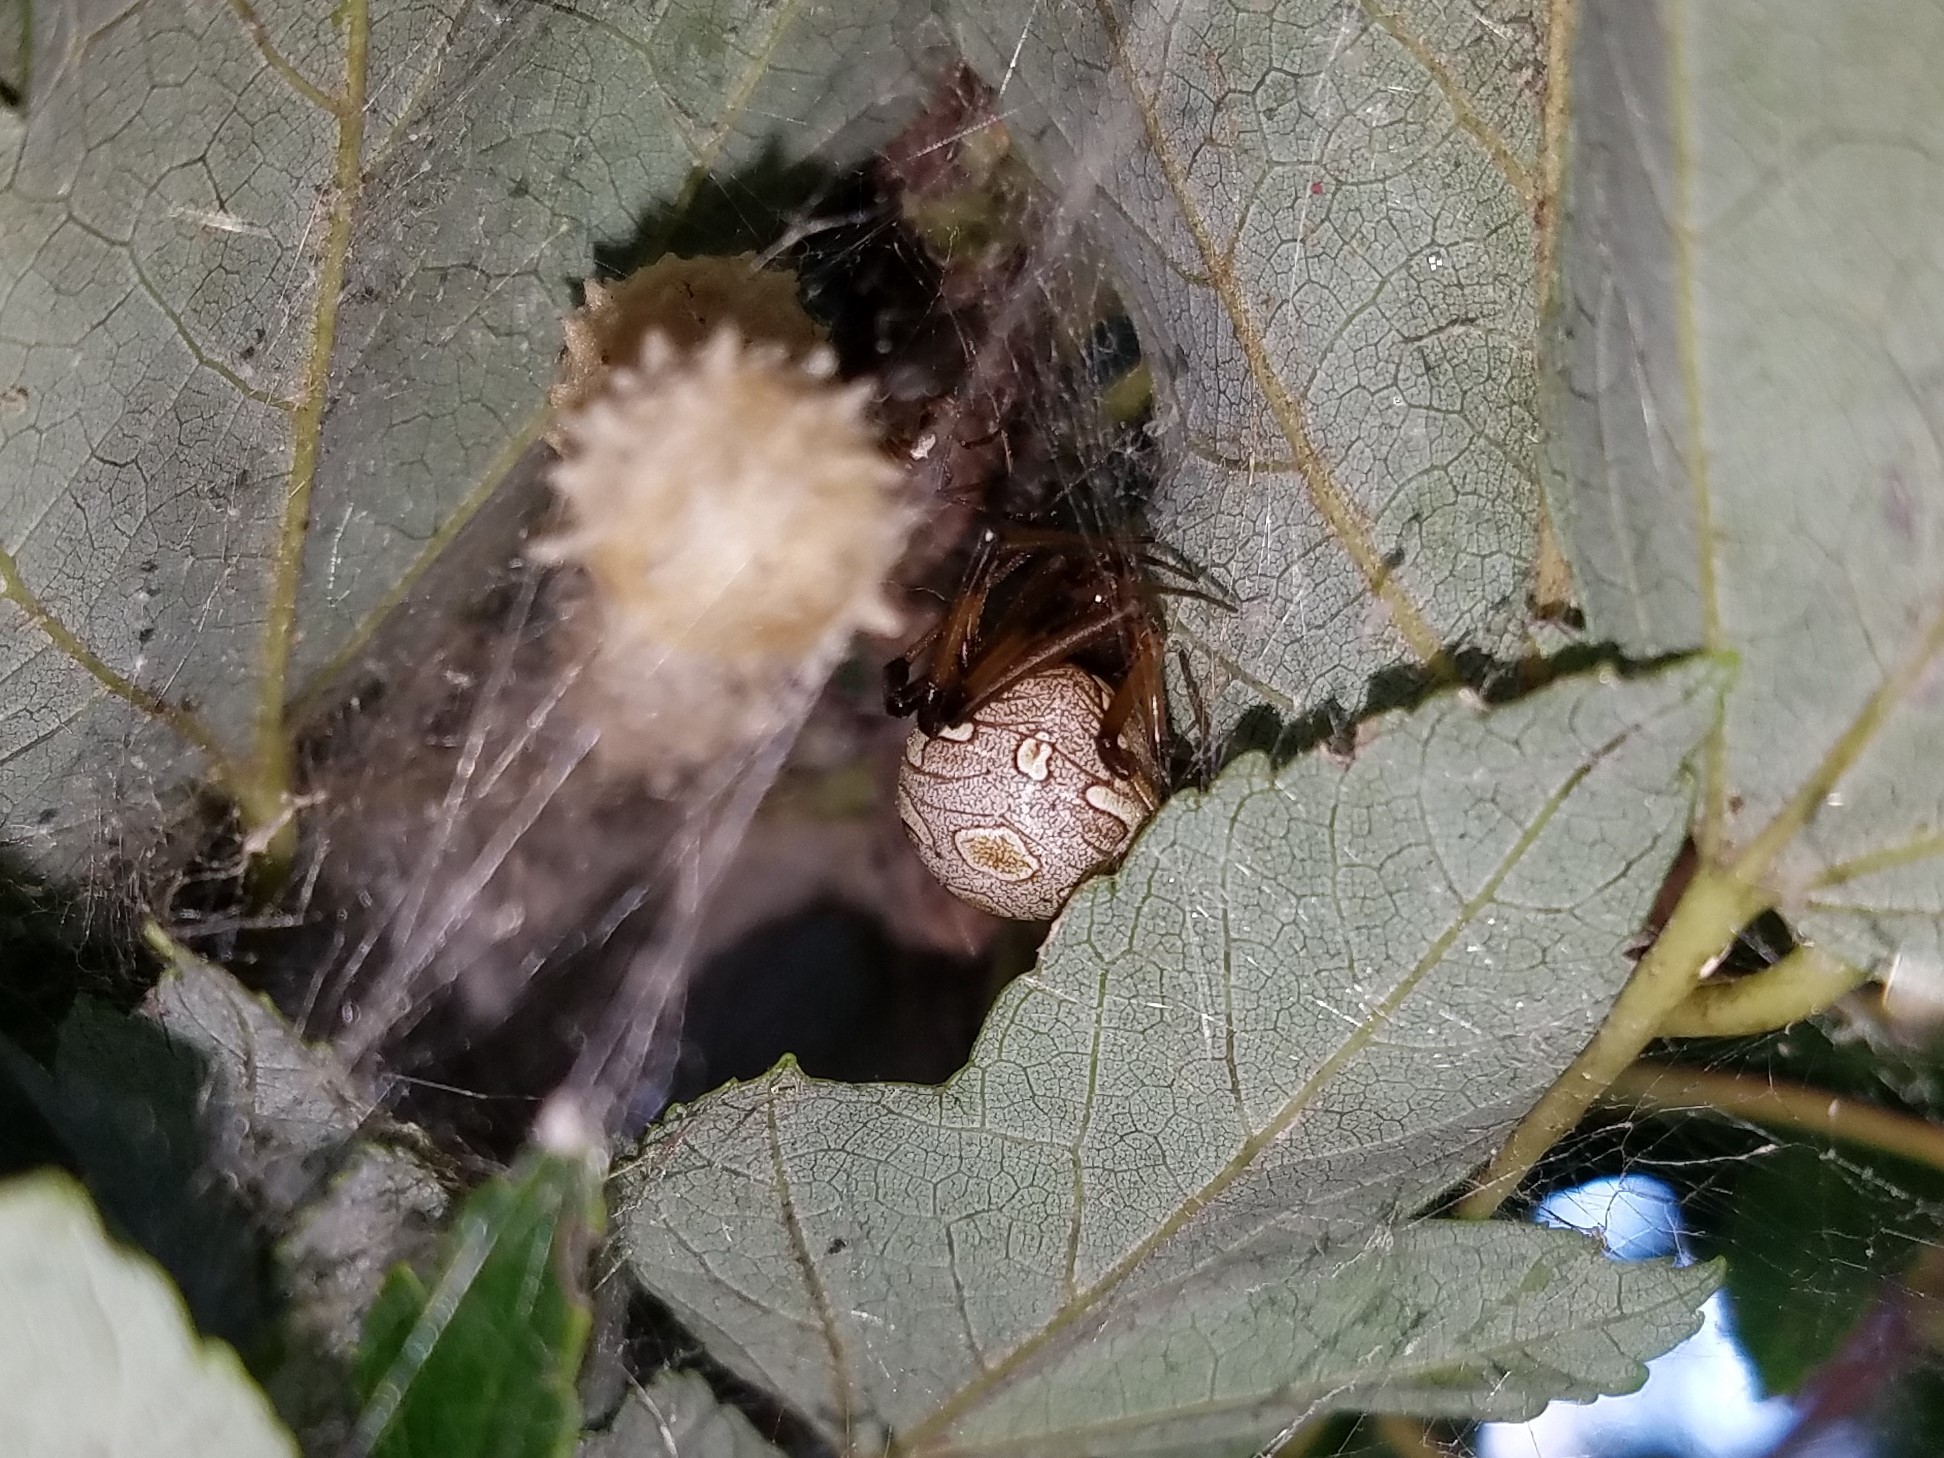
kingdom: Animalia
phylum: Arthropoda
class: Arachnida
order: Araneae
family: Theridiidae
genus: Latrodectus
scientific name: Latrodectus geometricus
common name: Brown widow spider
